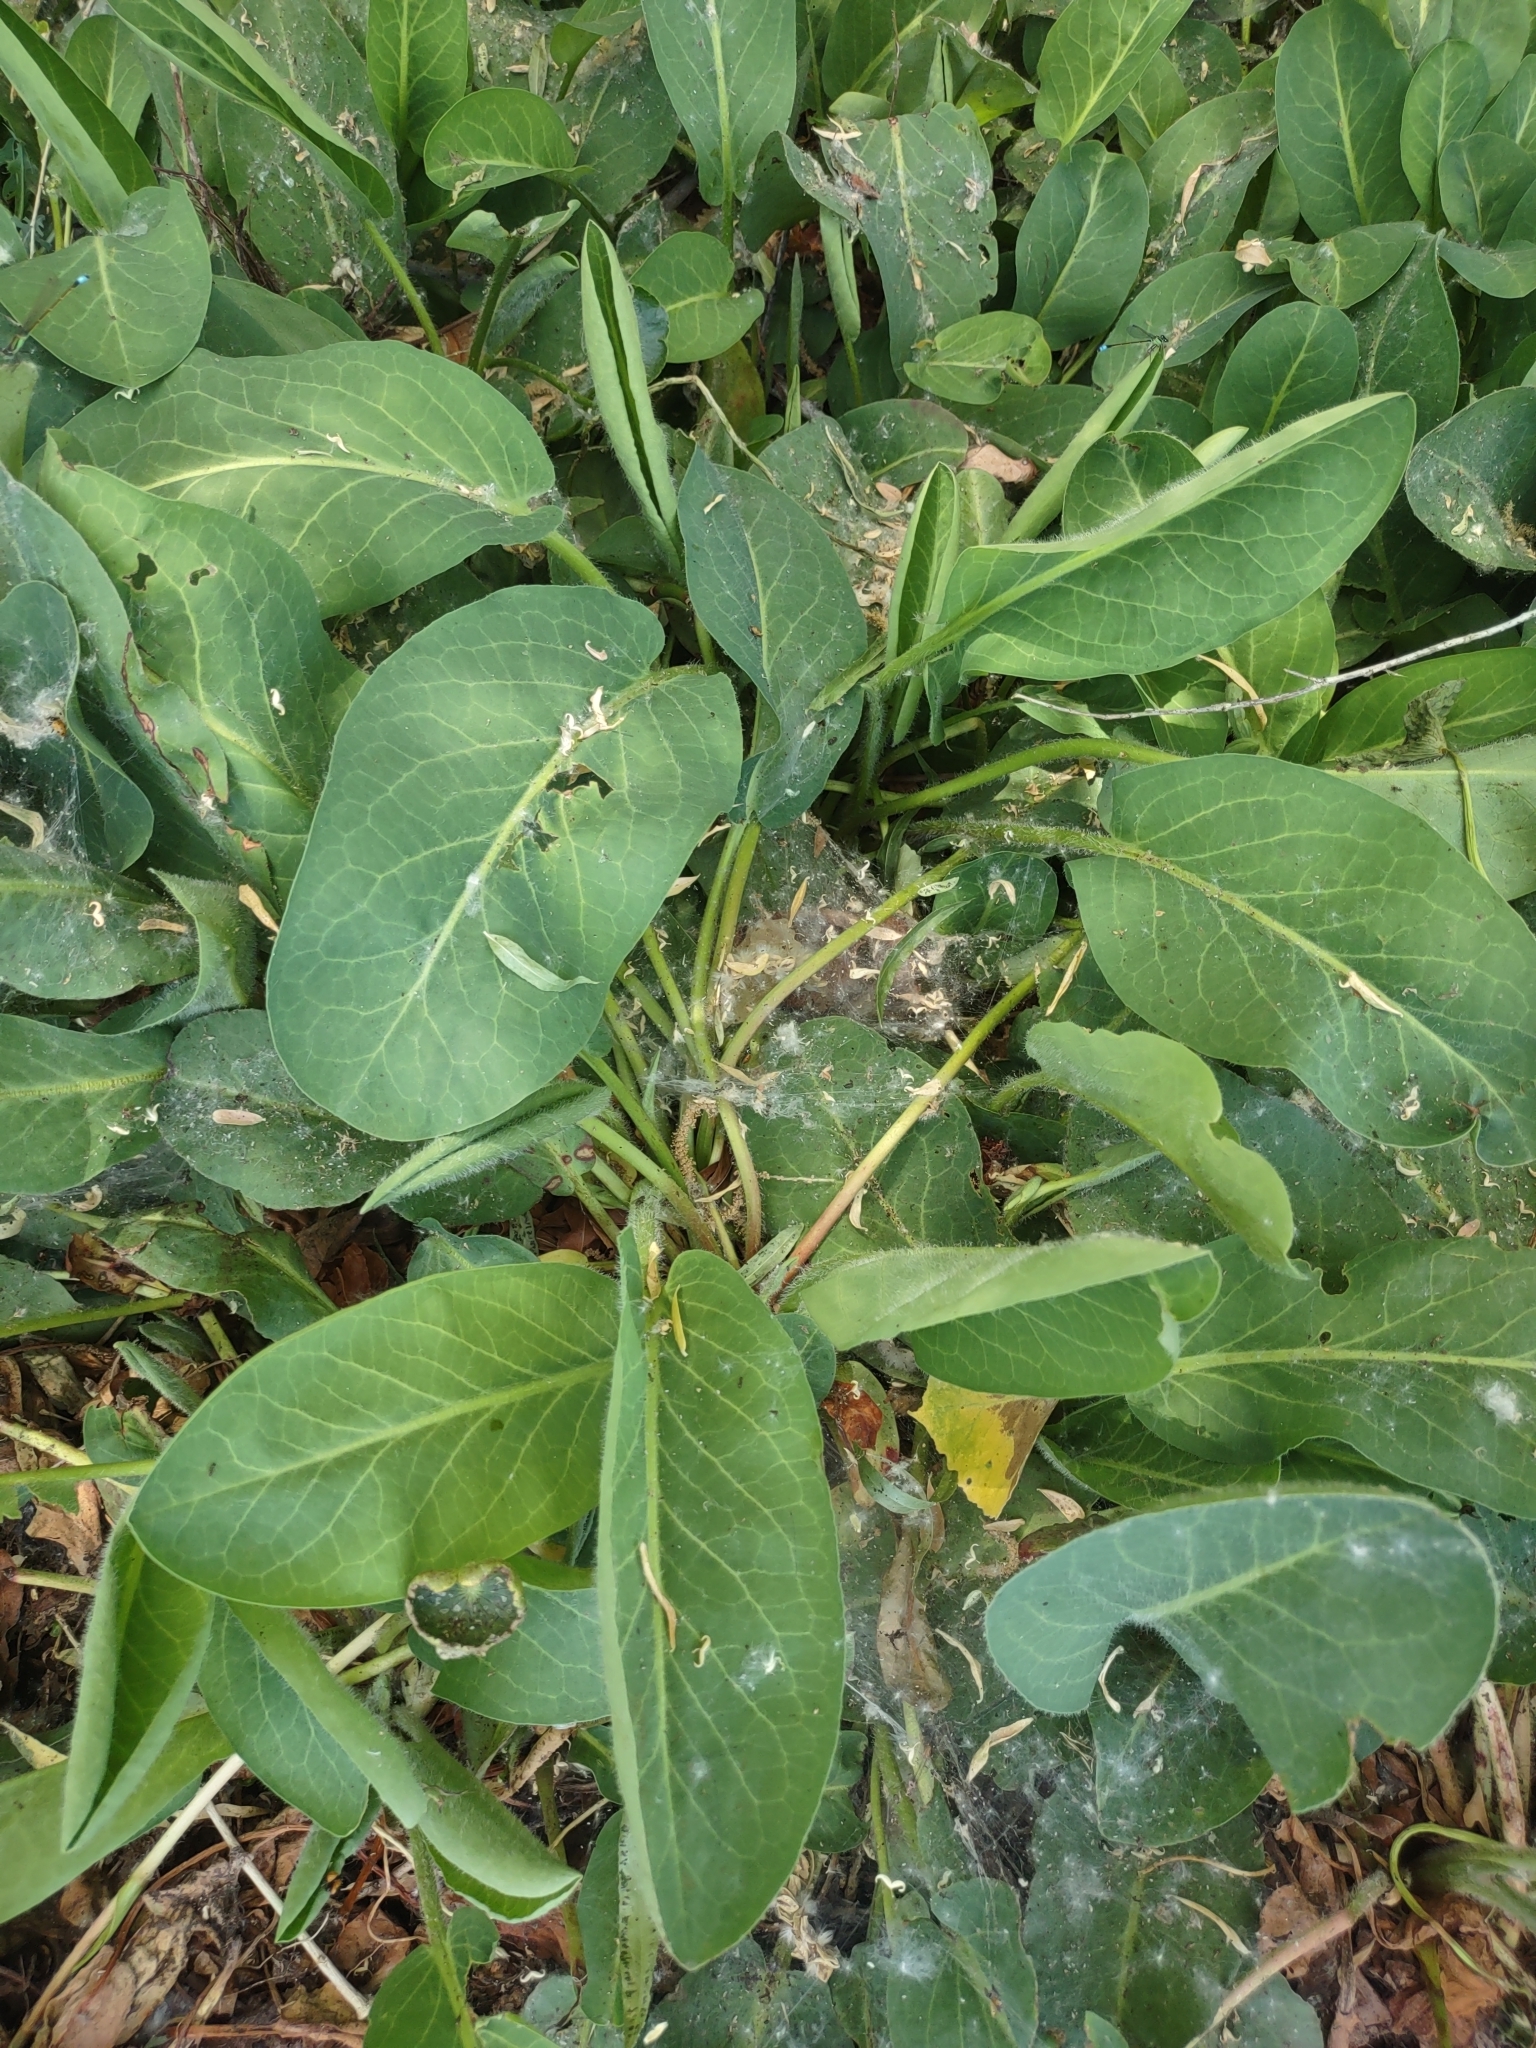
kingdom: Plantae
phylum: Tracheophyta
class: Magnoliopsida
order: Piperales
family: Saururaceae
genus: Anemopsis
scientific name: Anemopsis californica
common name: Apache-beads
